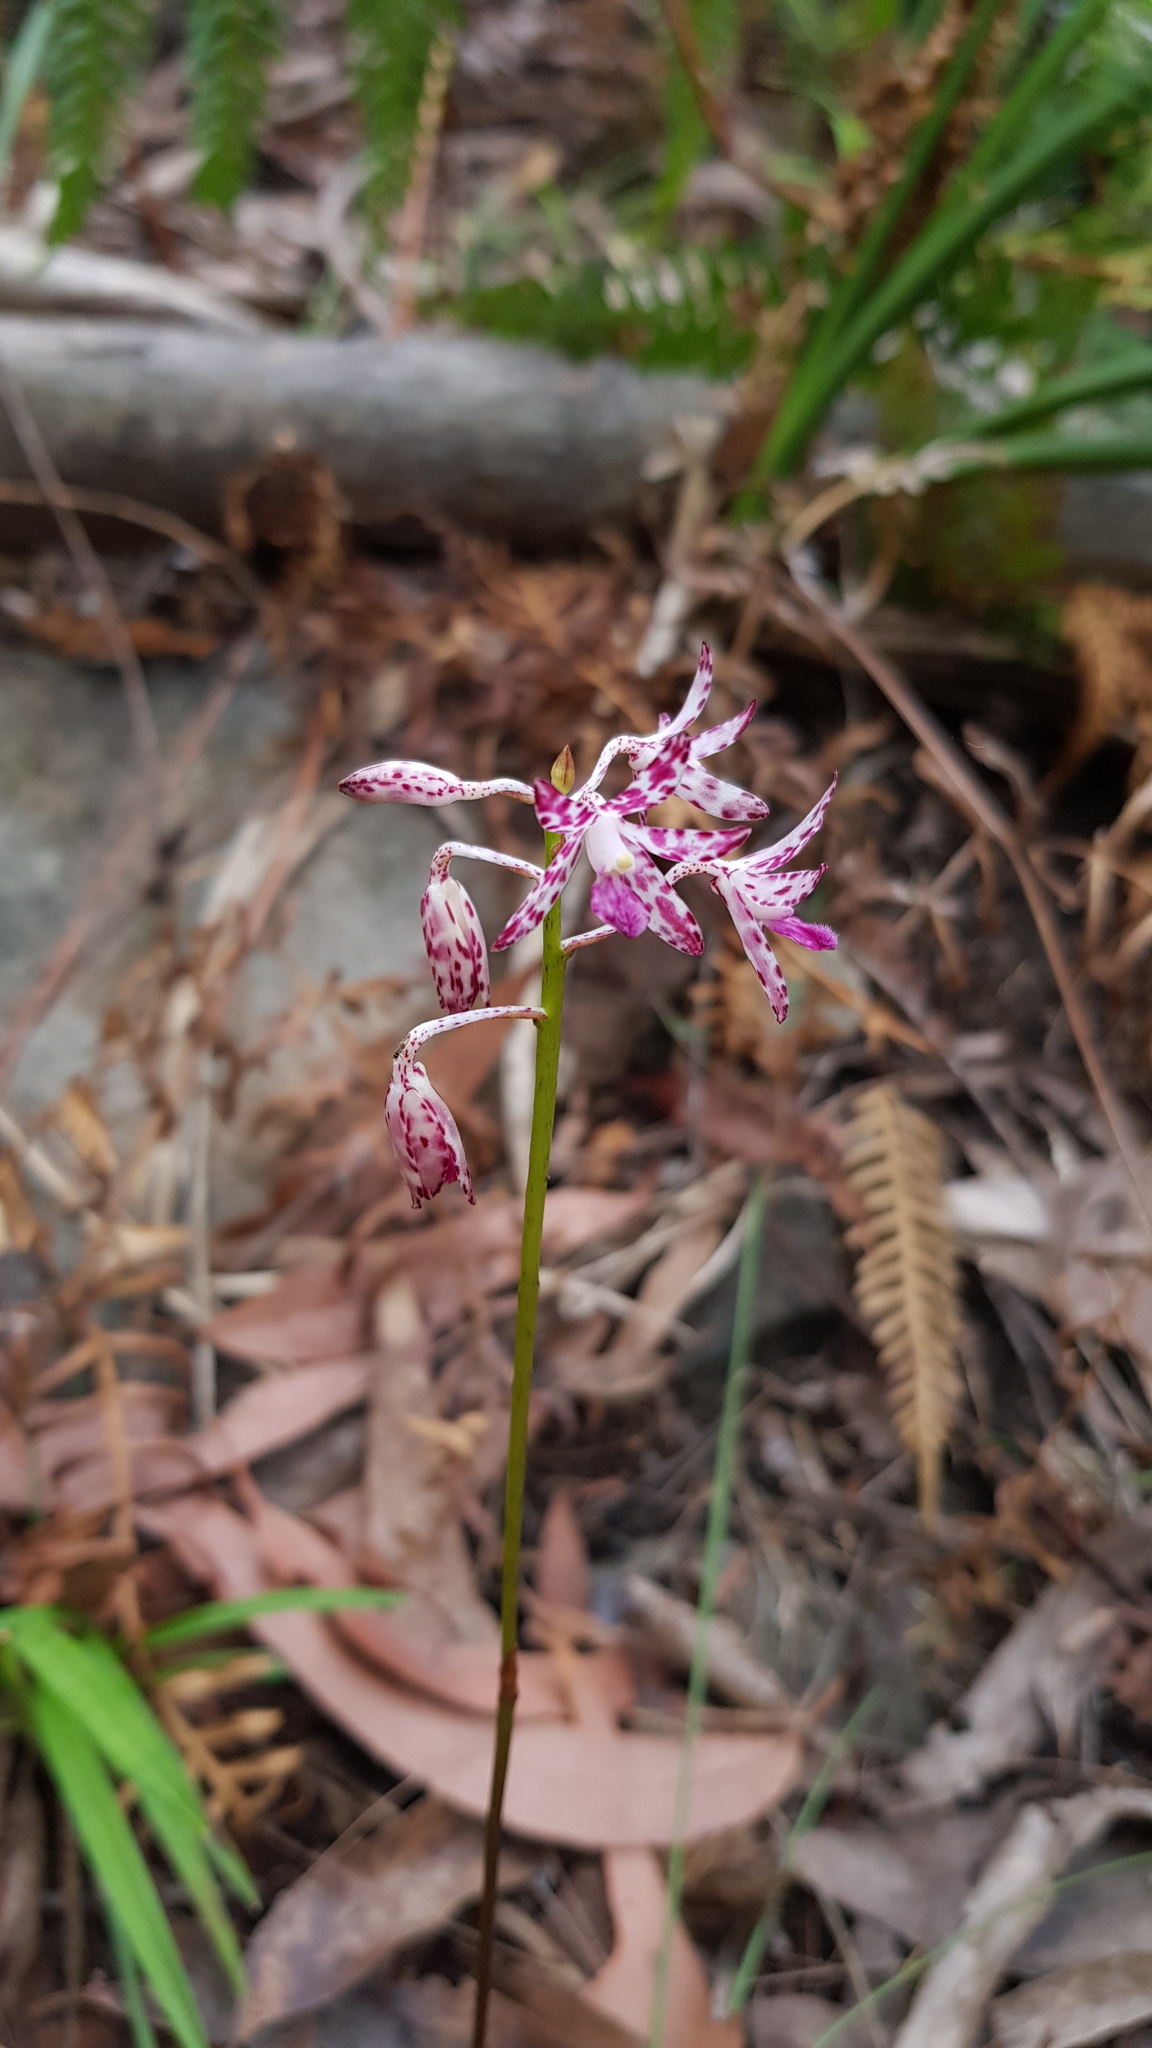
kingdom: Plantae
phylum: Tracheophyta
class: Liliopsida
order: Asparagales
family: Orchidaceae
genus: Dipodium
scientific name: Dipodium variegatum
